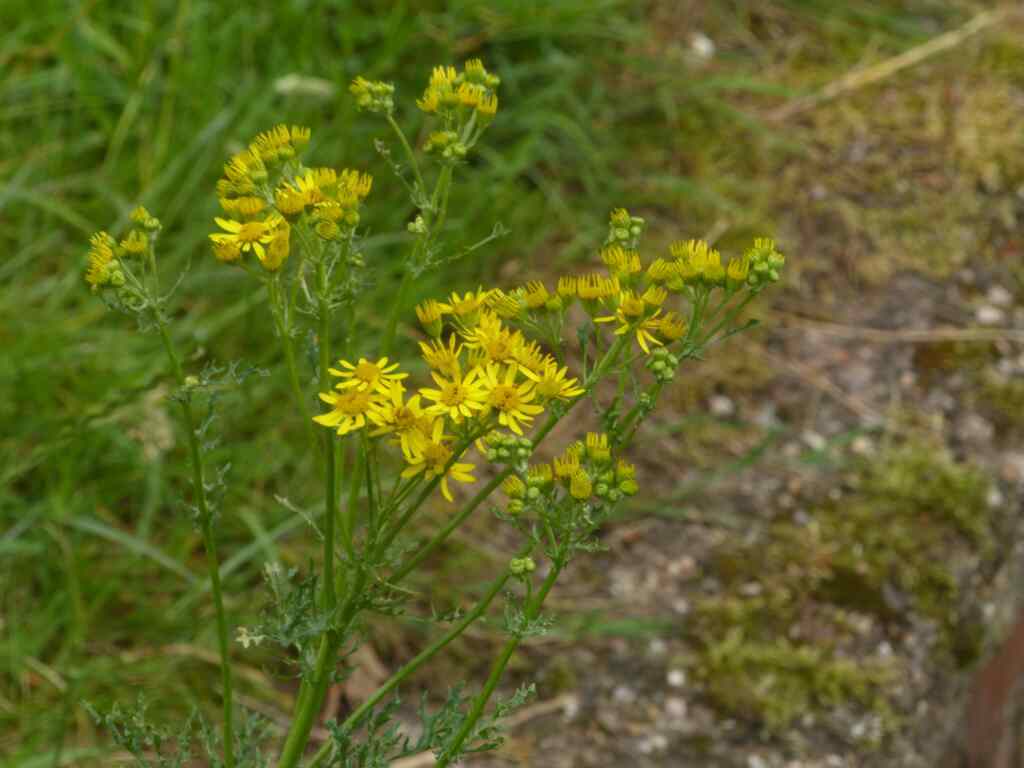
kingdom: Plantae
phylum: Tracheophyta
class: Magnoliopsida
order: Asterales
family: Asteraceae
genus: Jacobaea
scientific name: Jacobaea vulgaris
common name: Stinking willie
